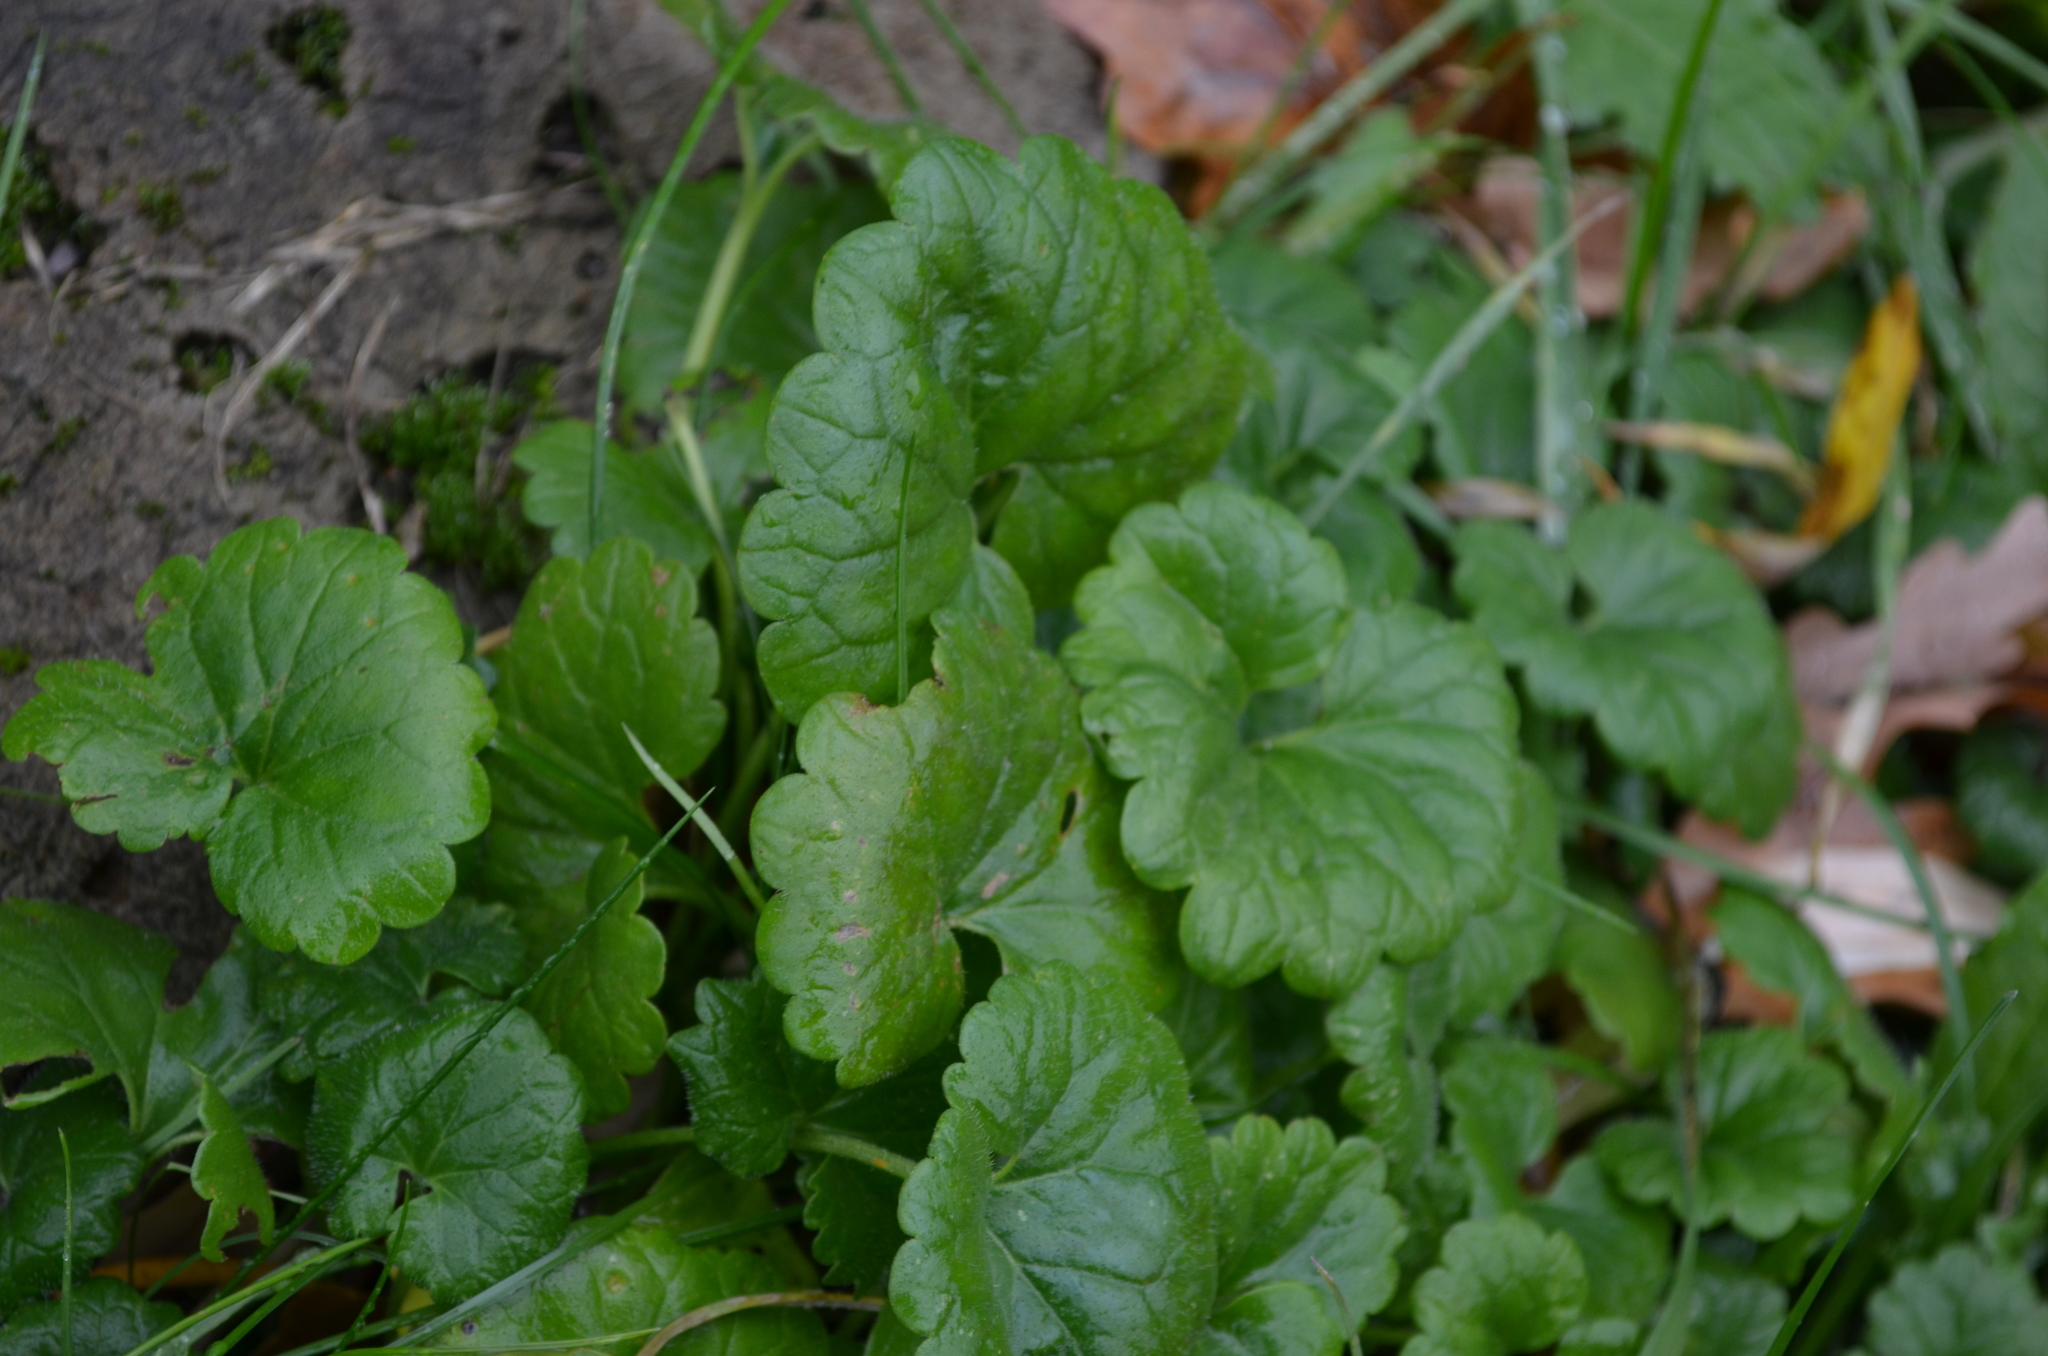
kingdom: Plantae
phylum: Tracheophyta
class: Magnoliopsida
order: Lamiales
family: Lamiaceae
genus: Glechoma
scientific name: Glechoma hederacea
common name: Ground ivy
